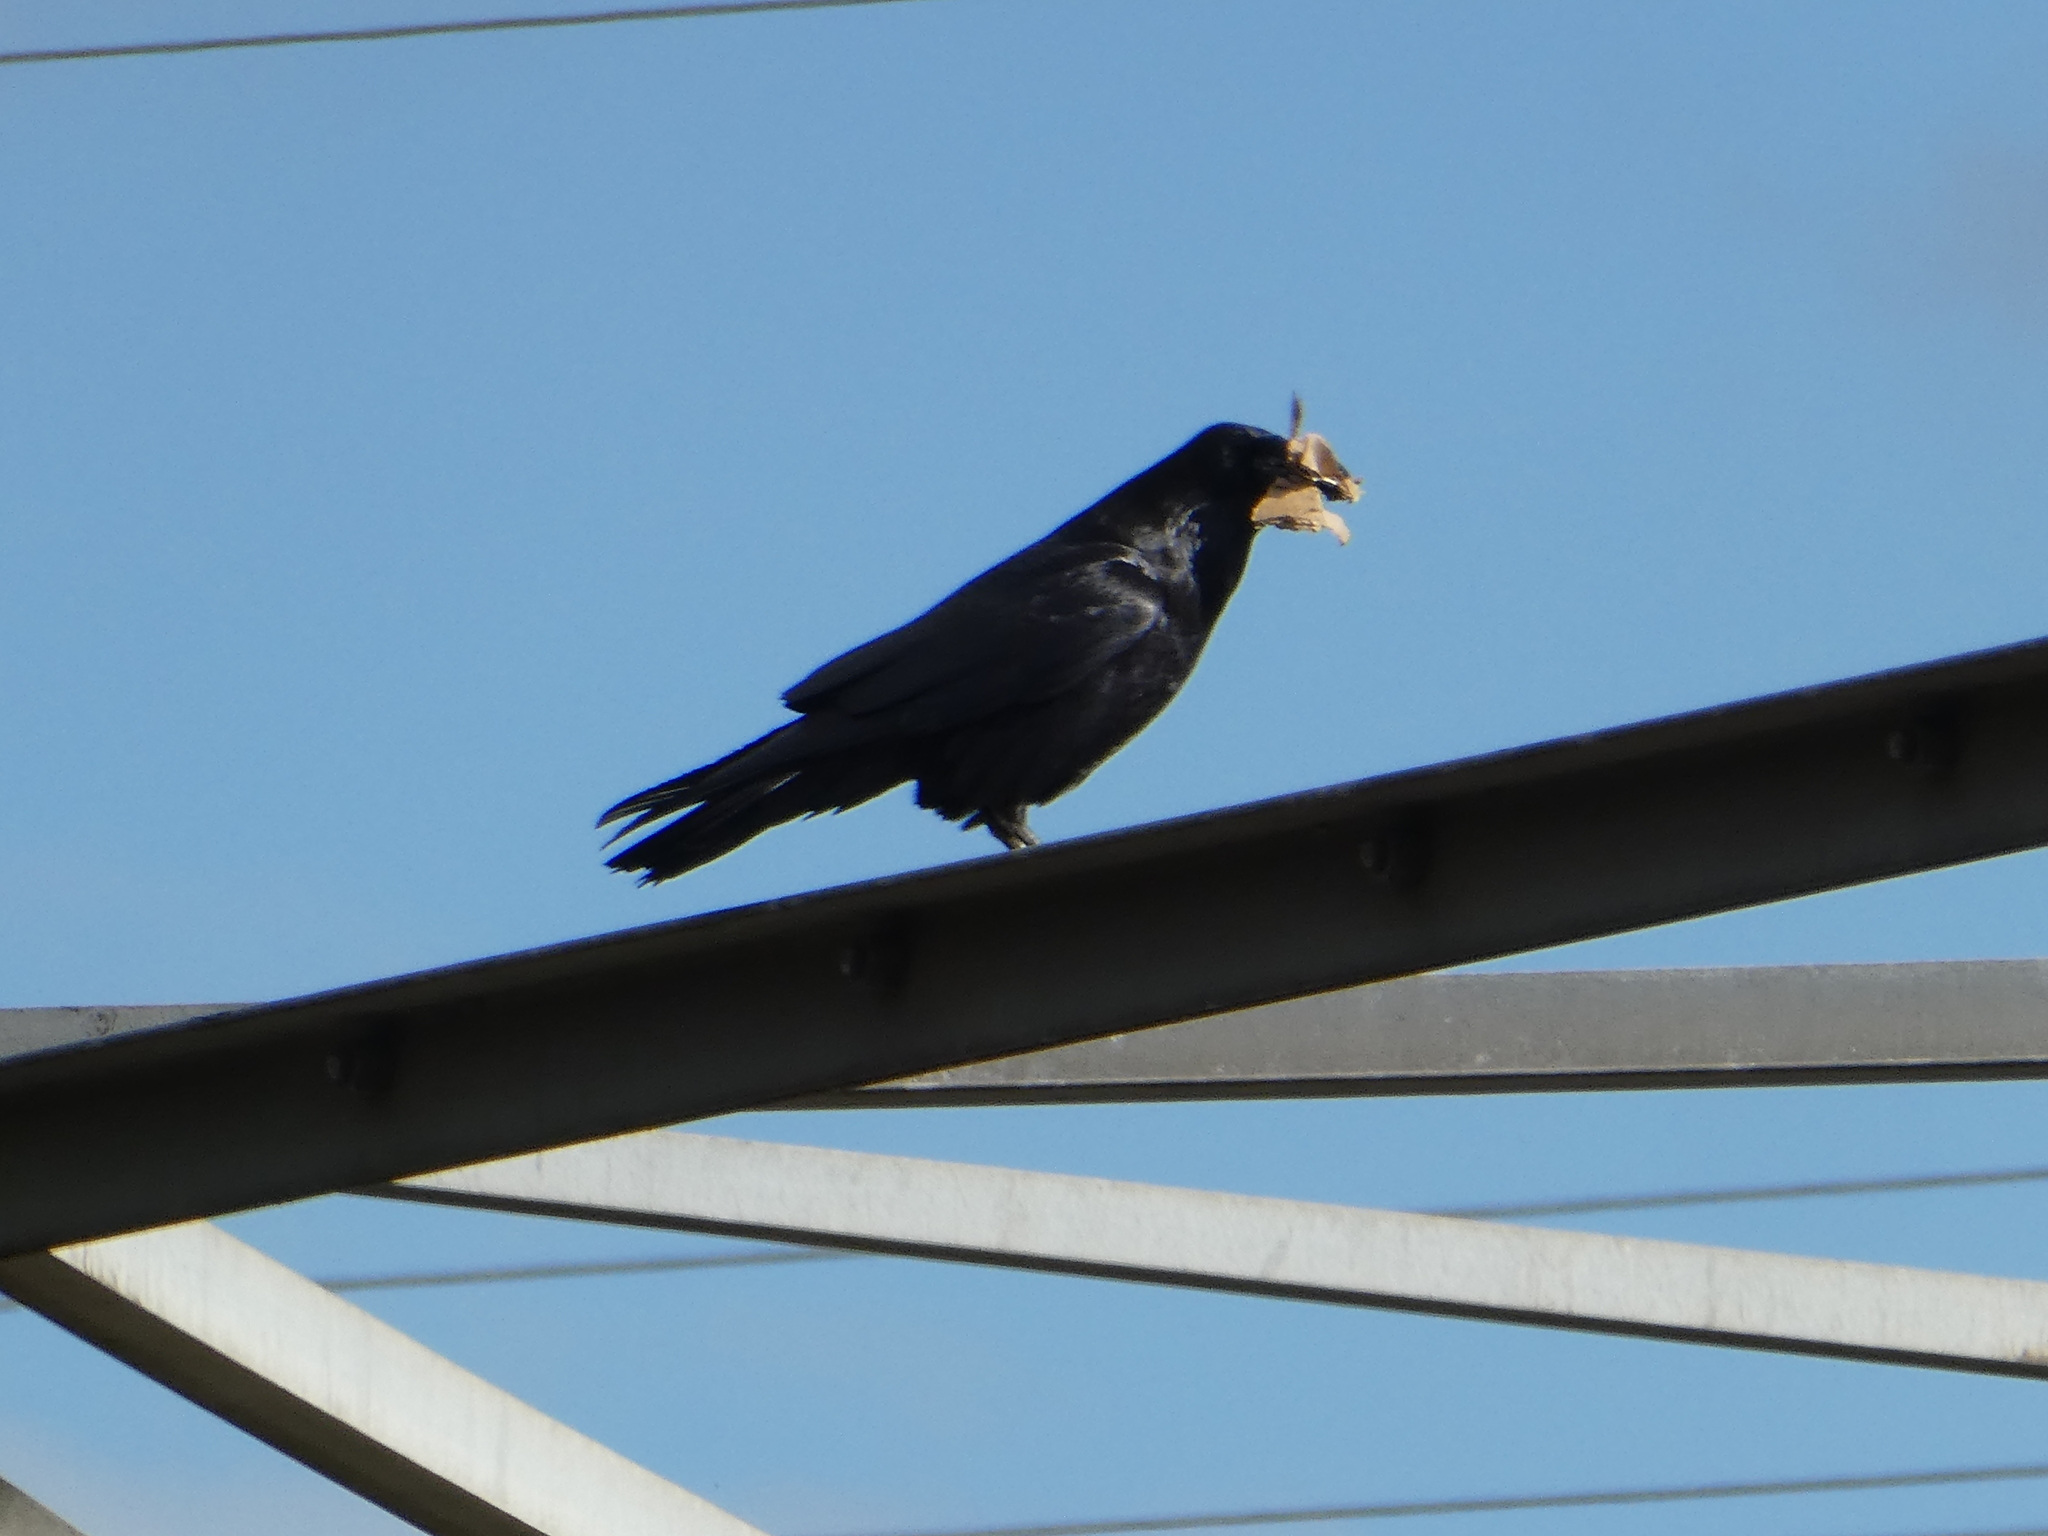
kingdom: Animalia
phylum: Chordata
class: Aves
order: Passeriformes
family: Corvidae
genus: Corvus
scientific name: Corvus brachyrhynchos
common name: American crow
